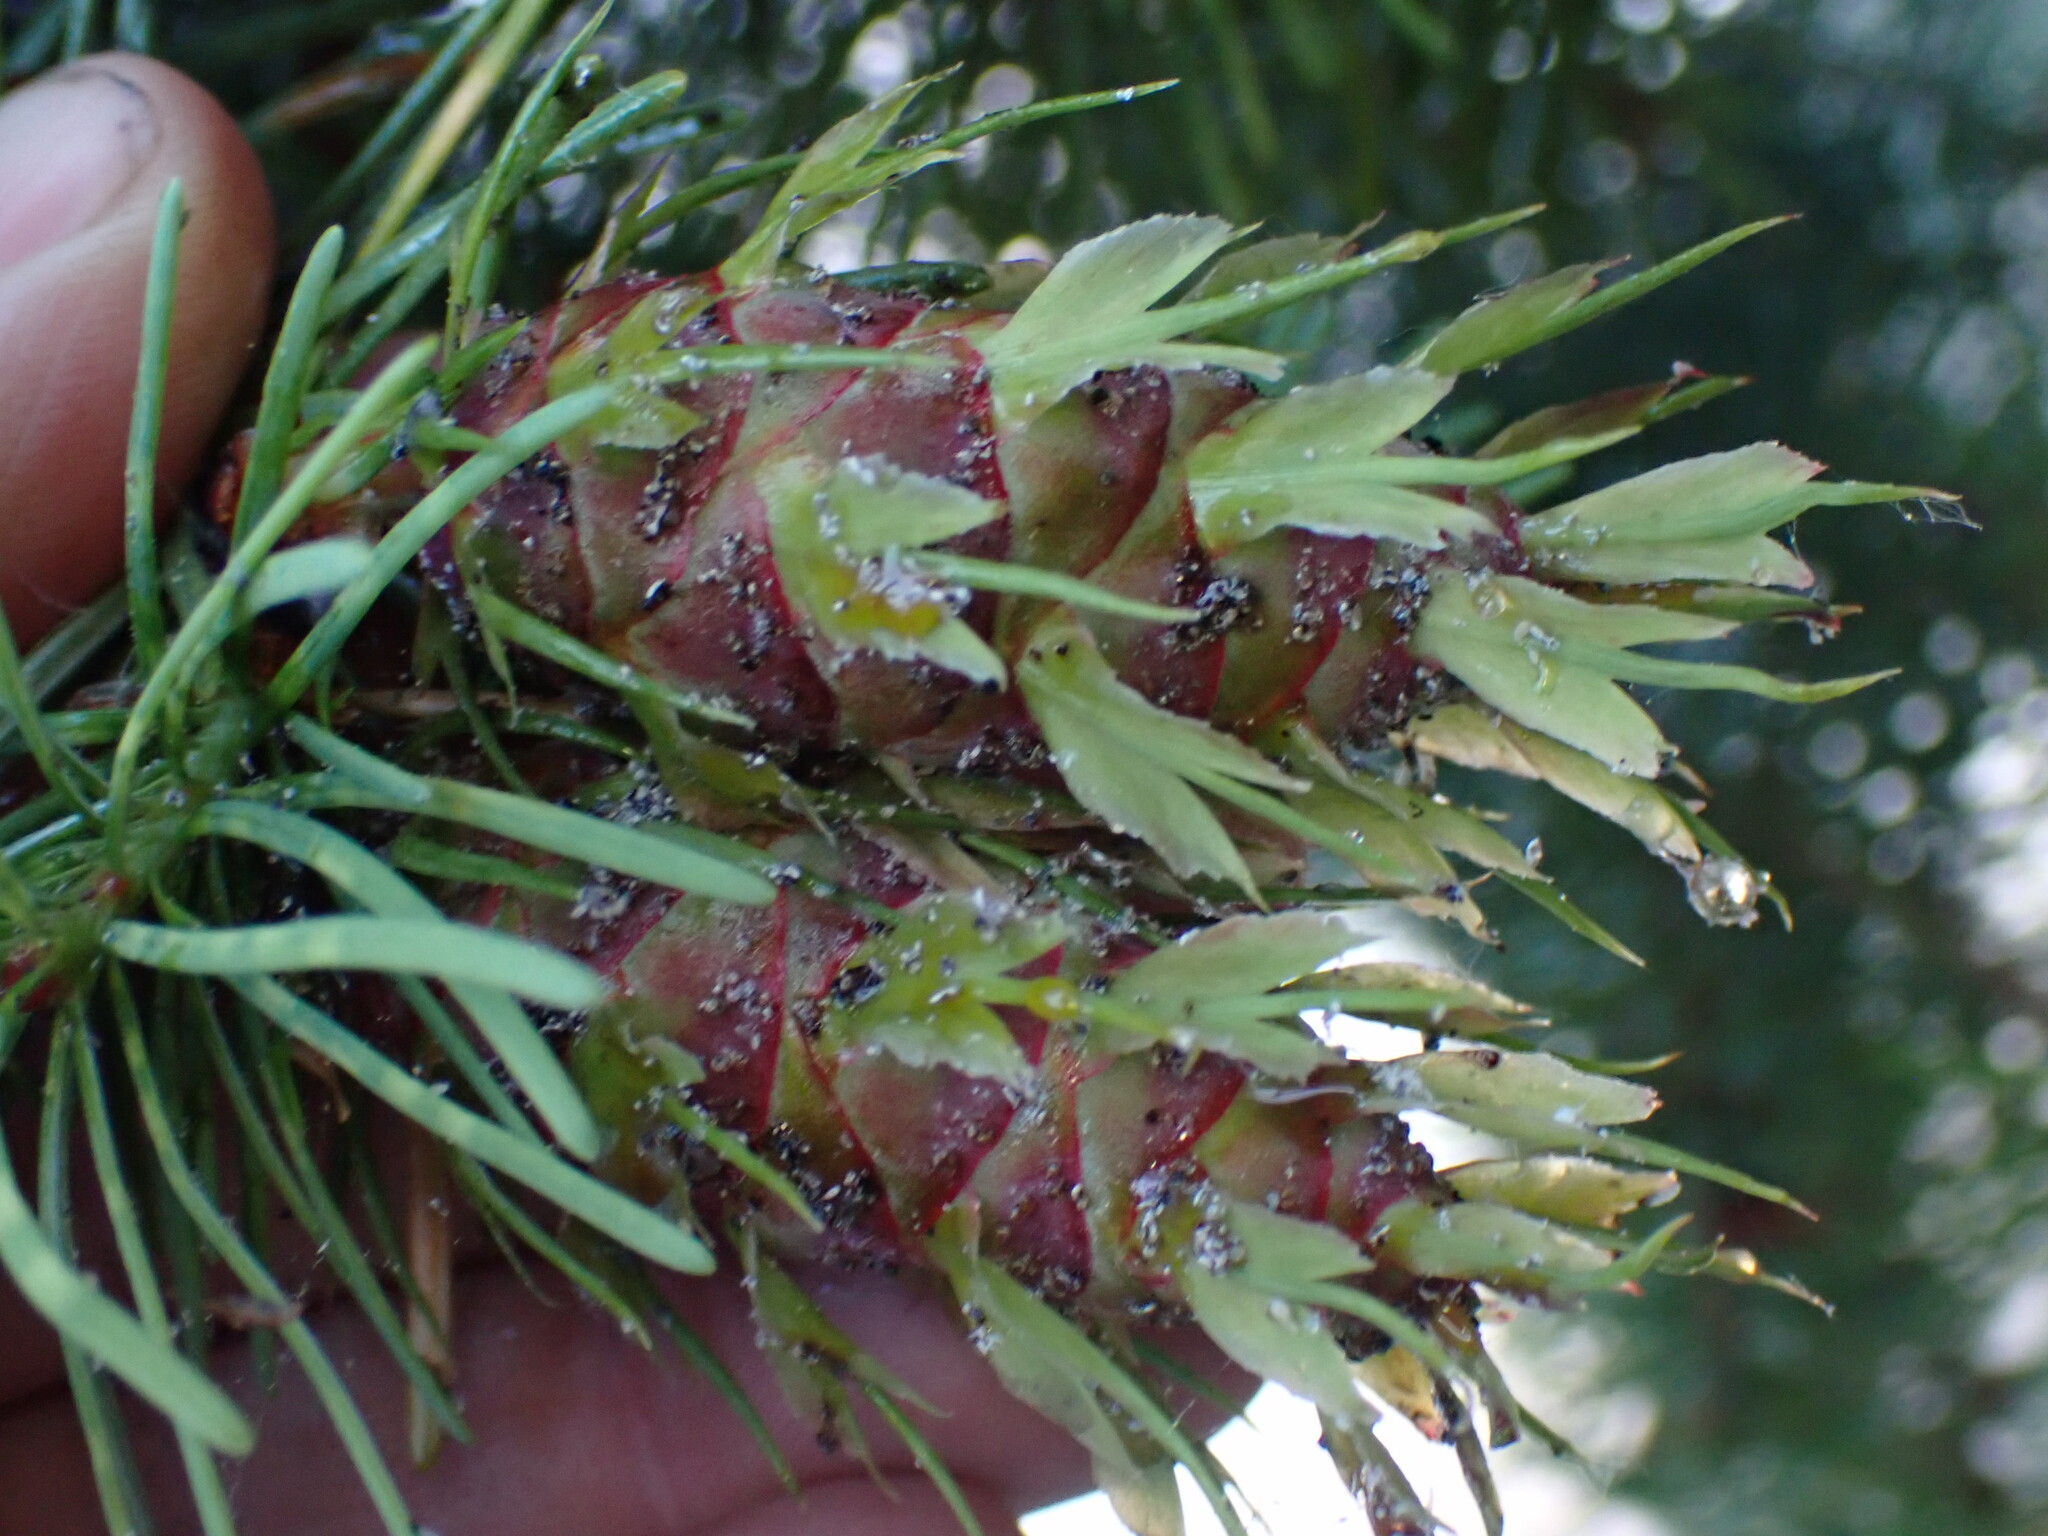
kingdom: Plantae
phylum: Tracheophyta
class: Pinopsida
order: Pinales
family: Pinaceae
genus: Pseudotsuga
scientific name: Pseudotsuga menziesii
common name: Douglas fir
